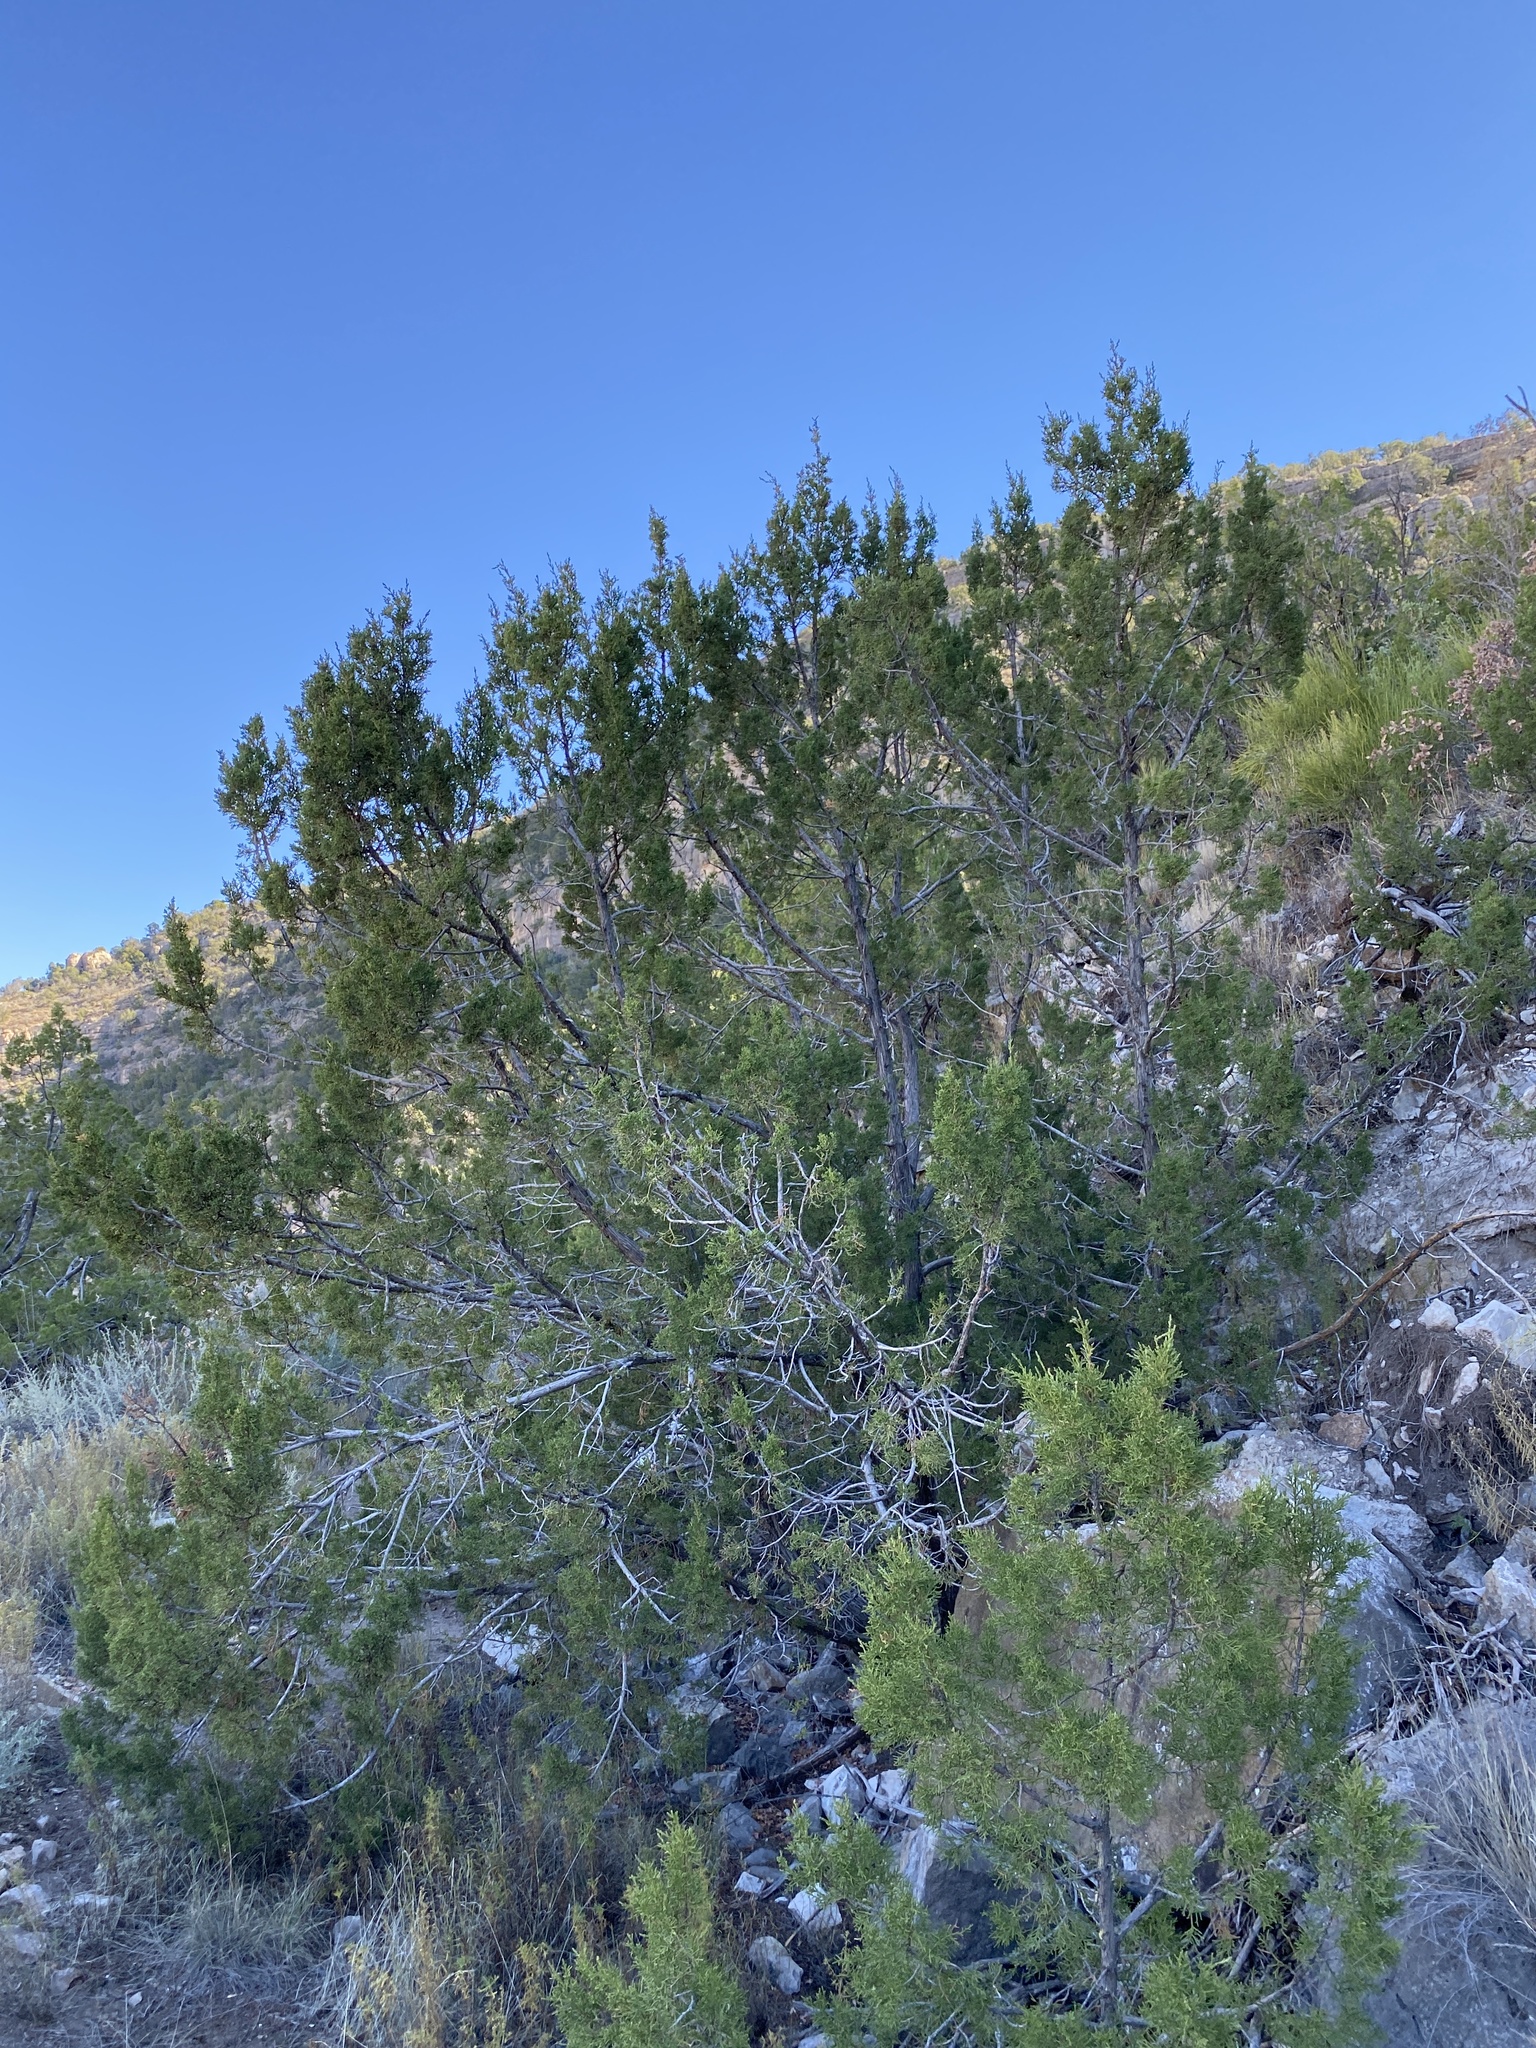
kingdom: Plantae
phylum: Tracheophyta
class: Pinopsida
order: Pinales
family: Cupressaceae
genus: Juniperus
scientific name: Juniperus monosperma
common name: One-seed juniper
